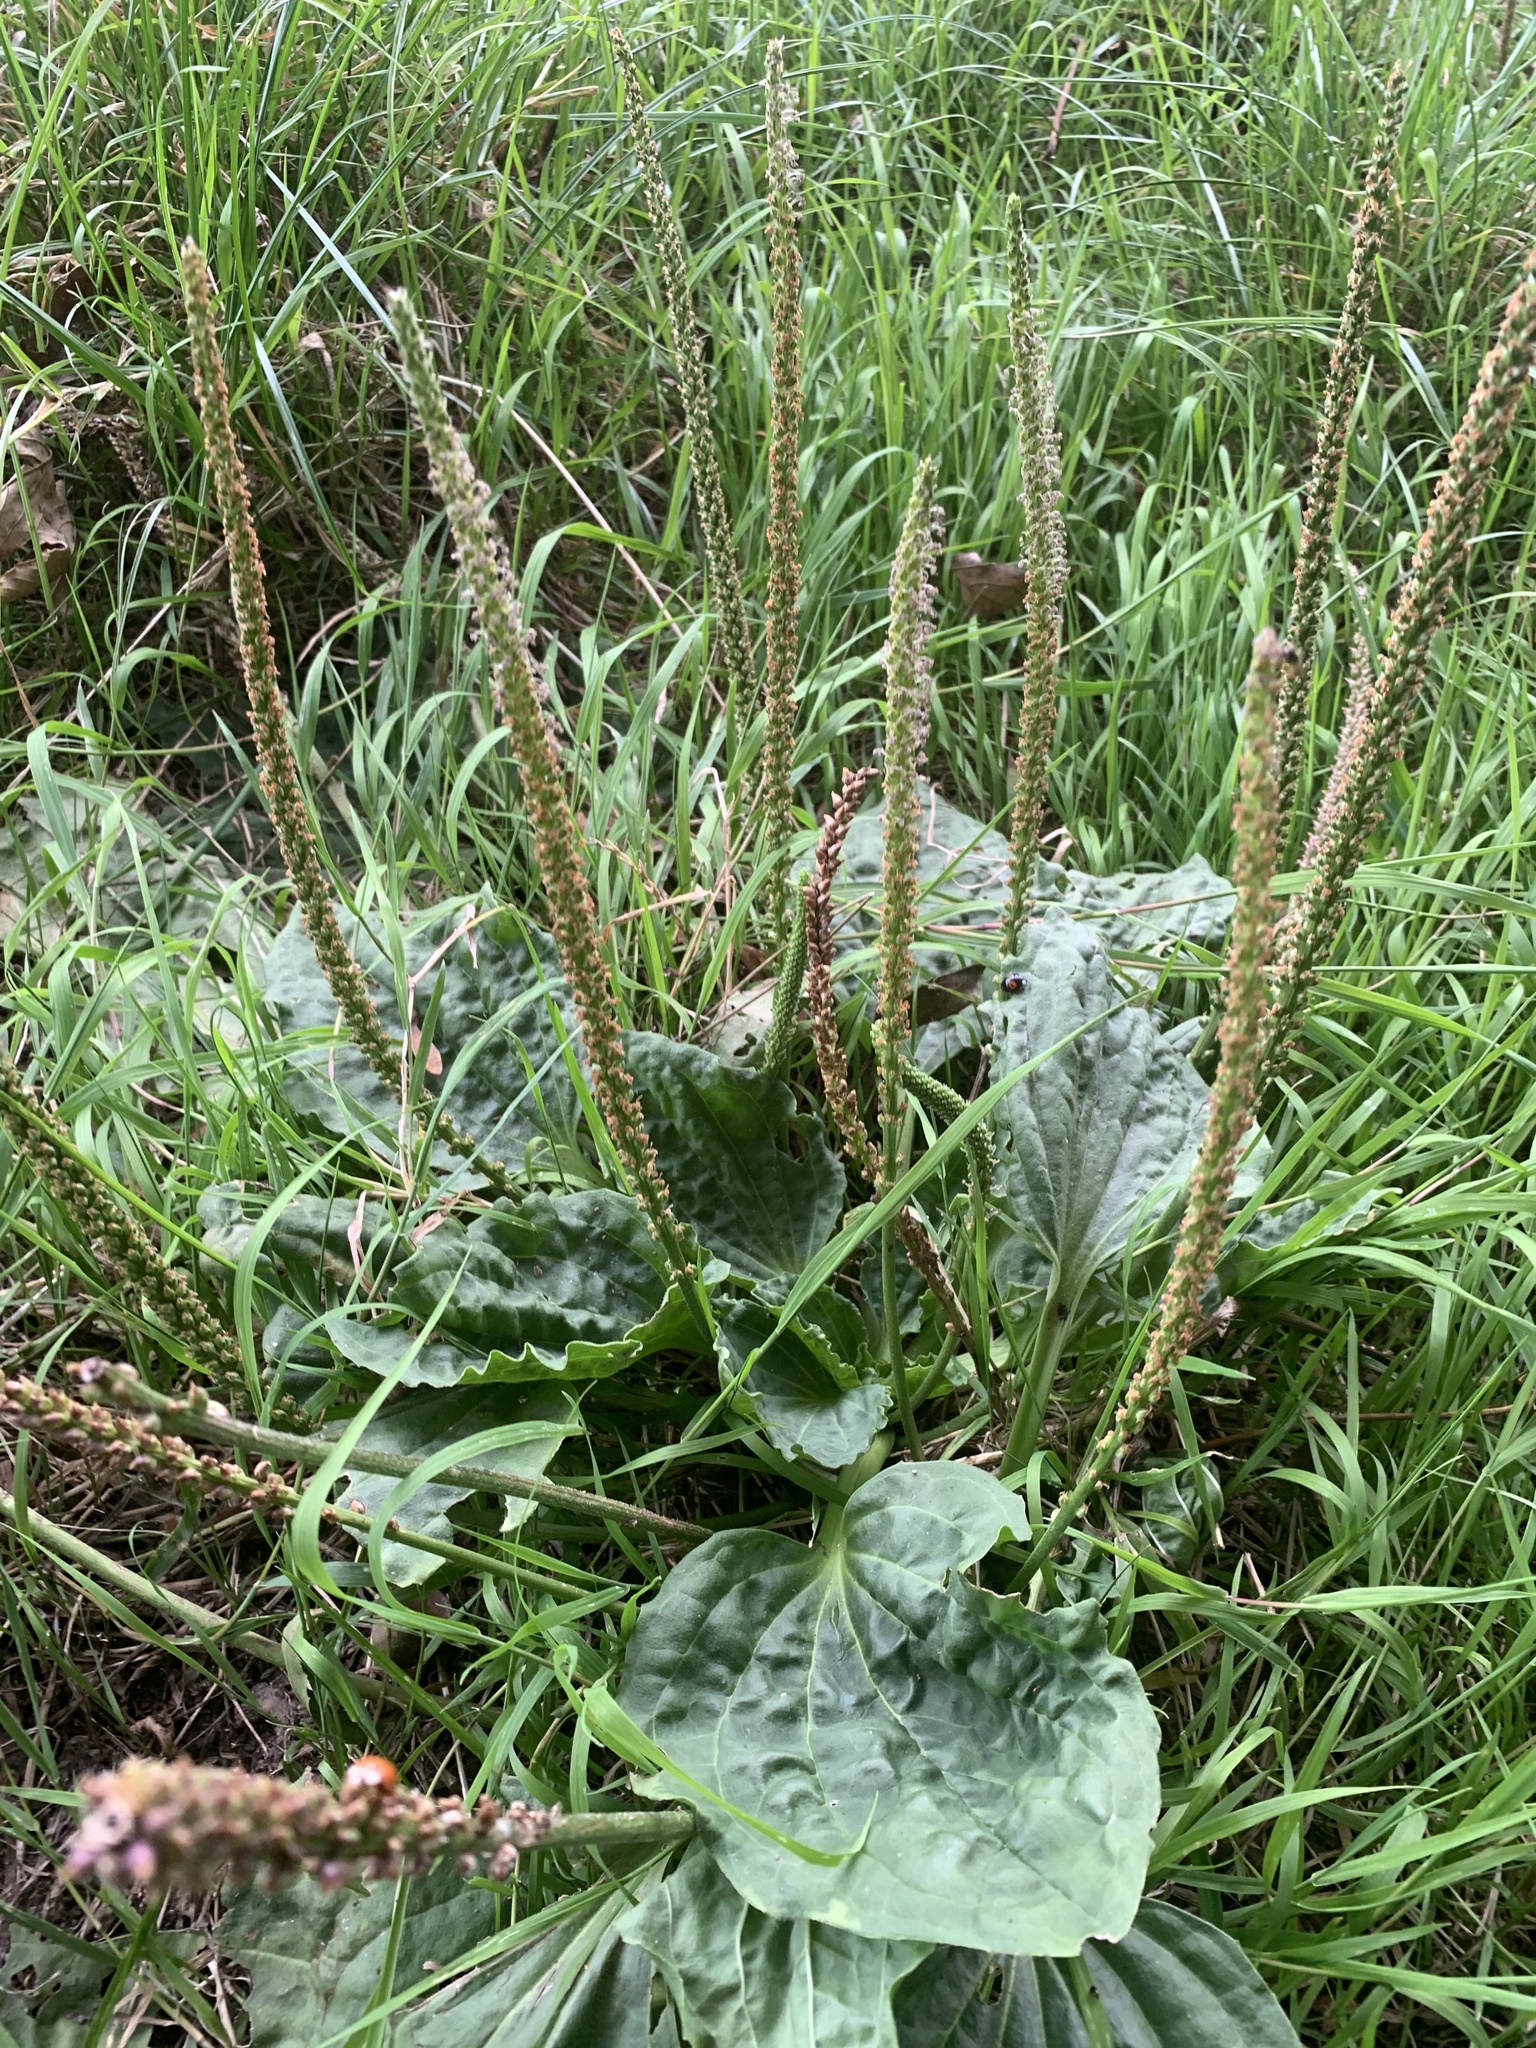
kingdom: Plantae
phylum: Tracheophyta
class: Magnoliopsida
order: Lamiales
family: Plantaginaceae
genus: Plantago
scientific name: Plantago major
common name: Common plantain
